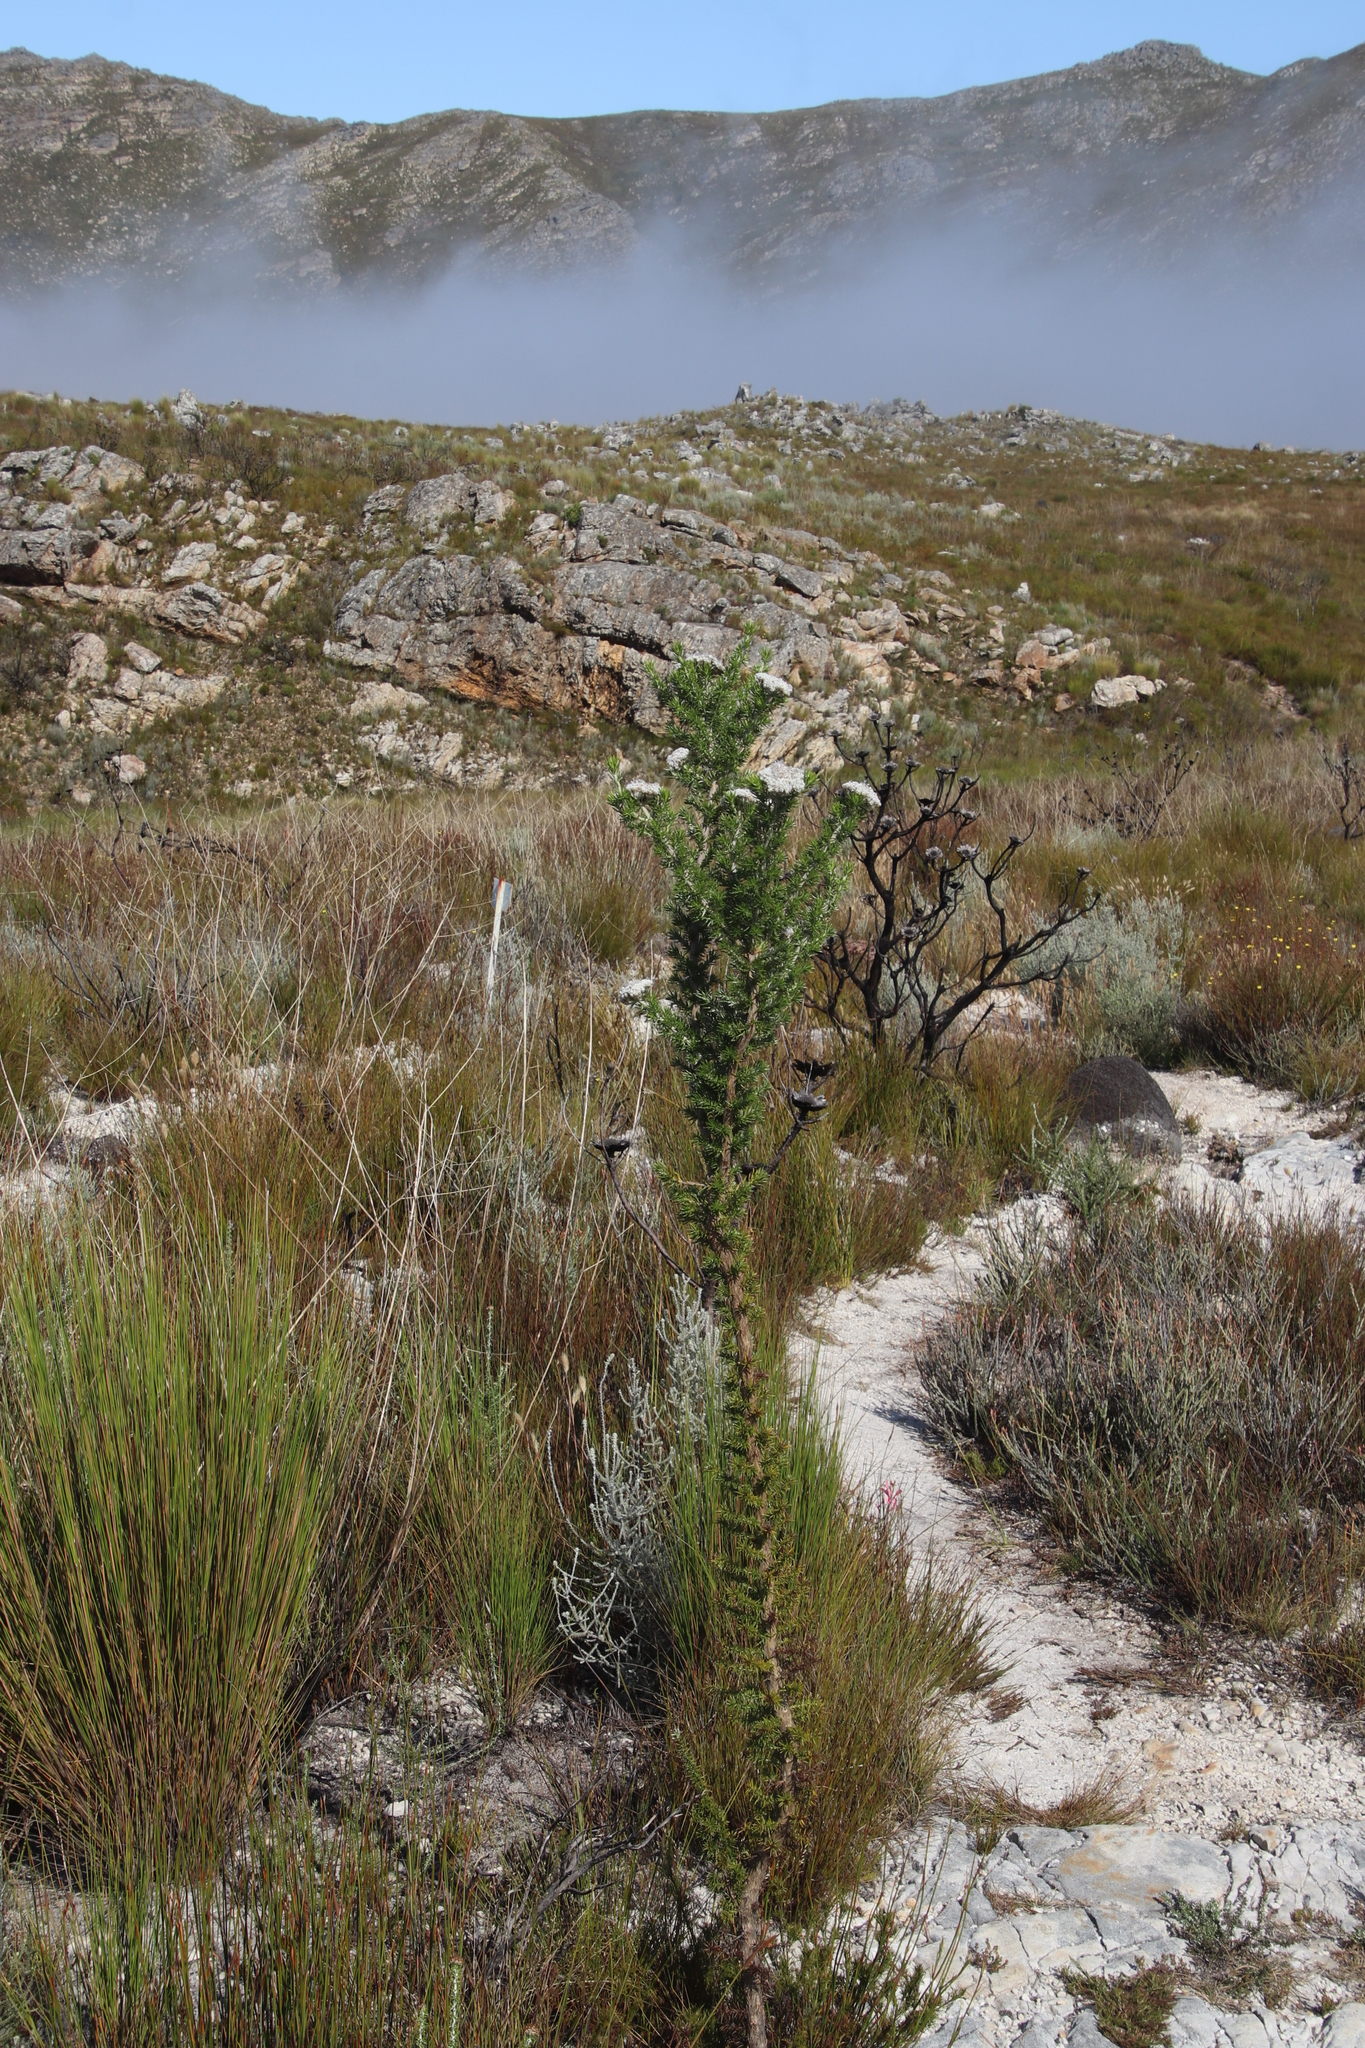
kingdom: Plantae
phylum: Tracheophyta
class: Magnoliopsida
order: Asterales
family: Asteraceae
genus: Metalasia
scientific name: Metalasia muraltiifolia
